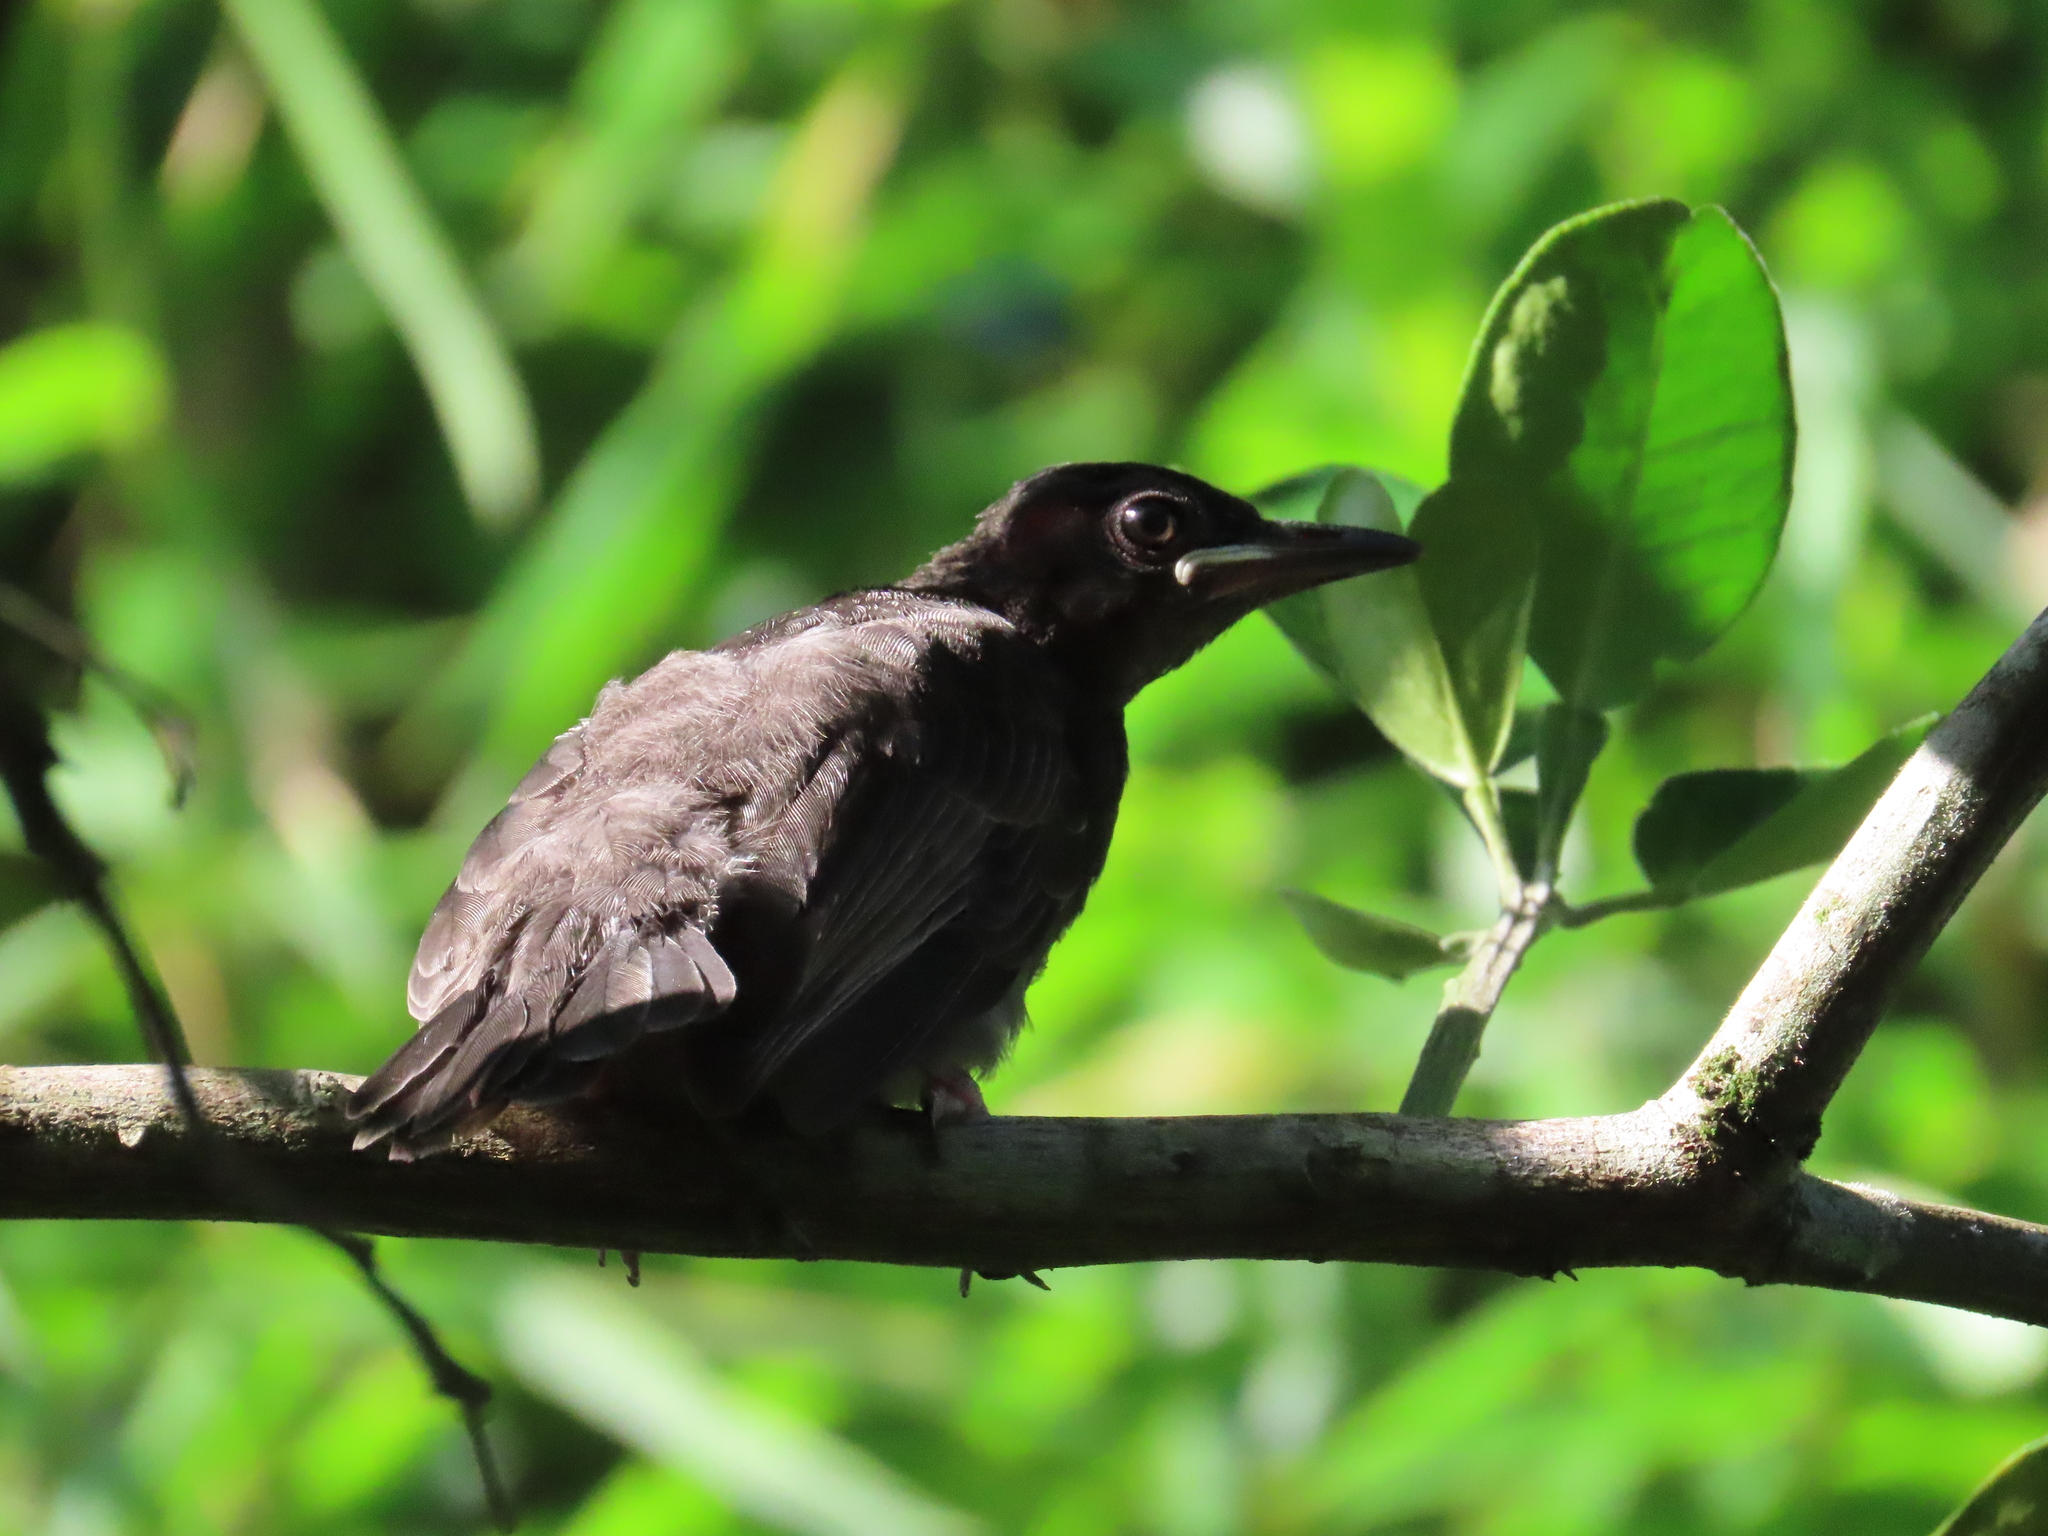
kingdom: Animalia
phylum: Chordata
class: Aves
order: Passeriformes
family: Pycnonotidae
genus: Hypsipetes
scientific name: Hypsipetes leucocephalus
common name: Black bulbul
